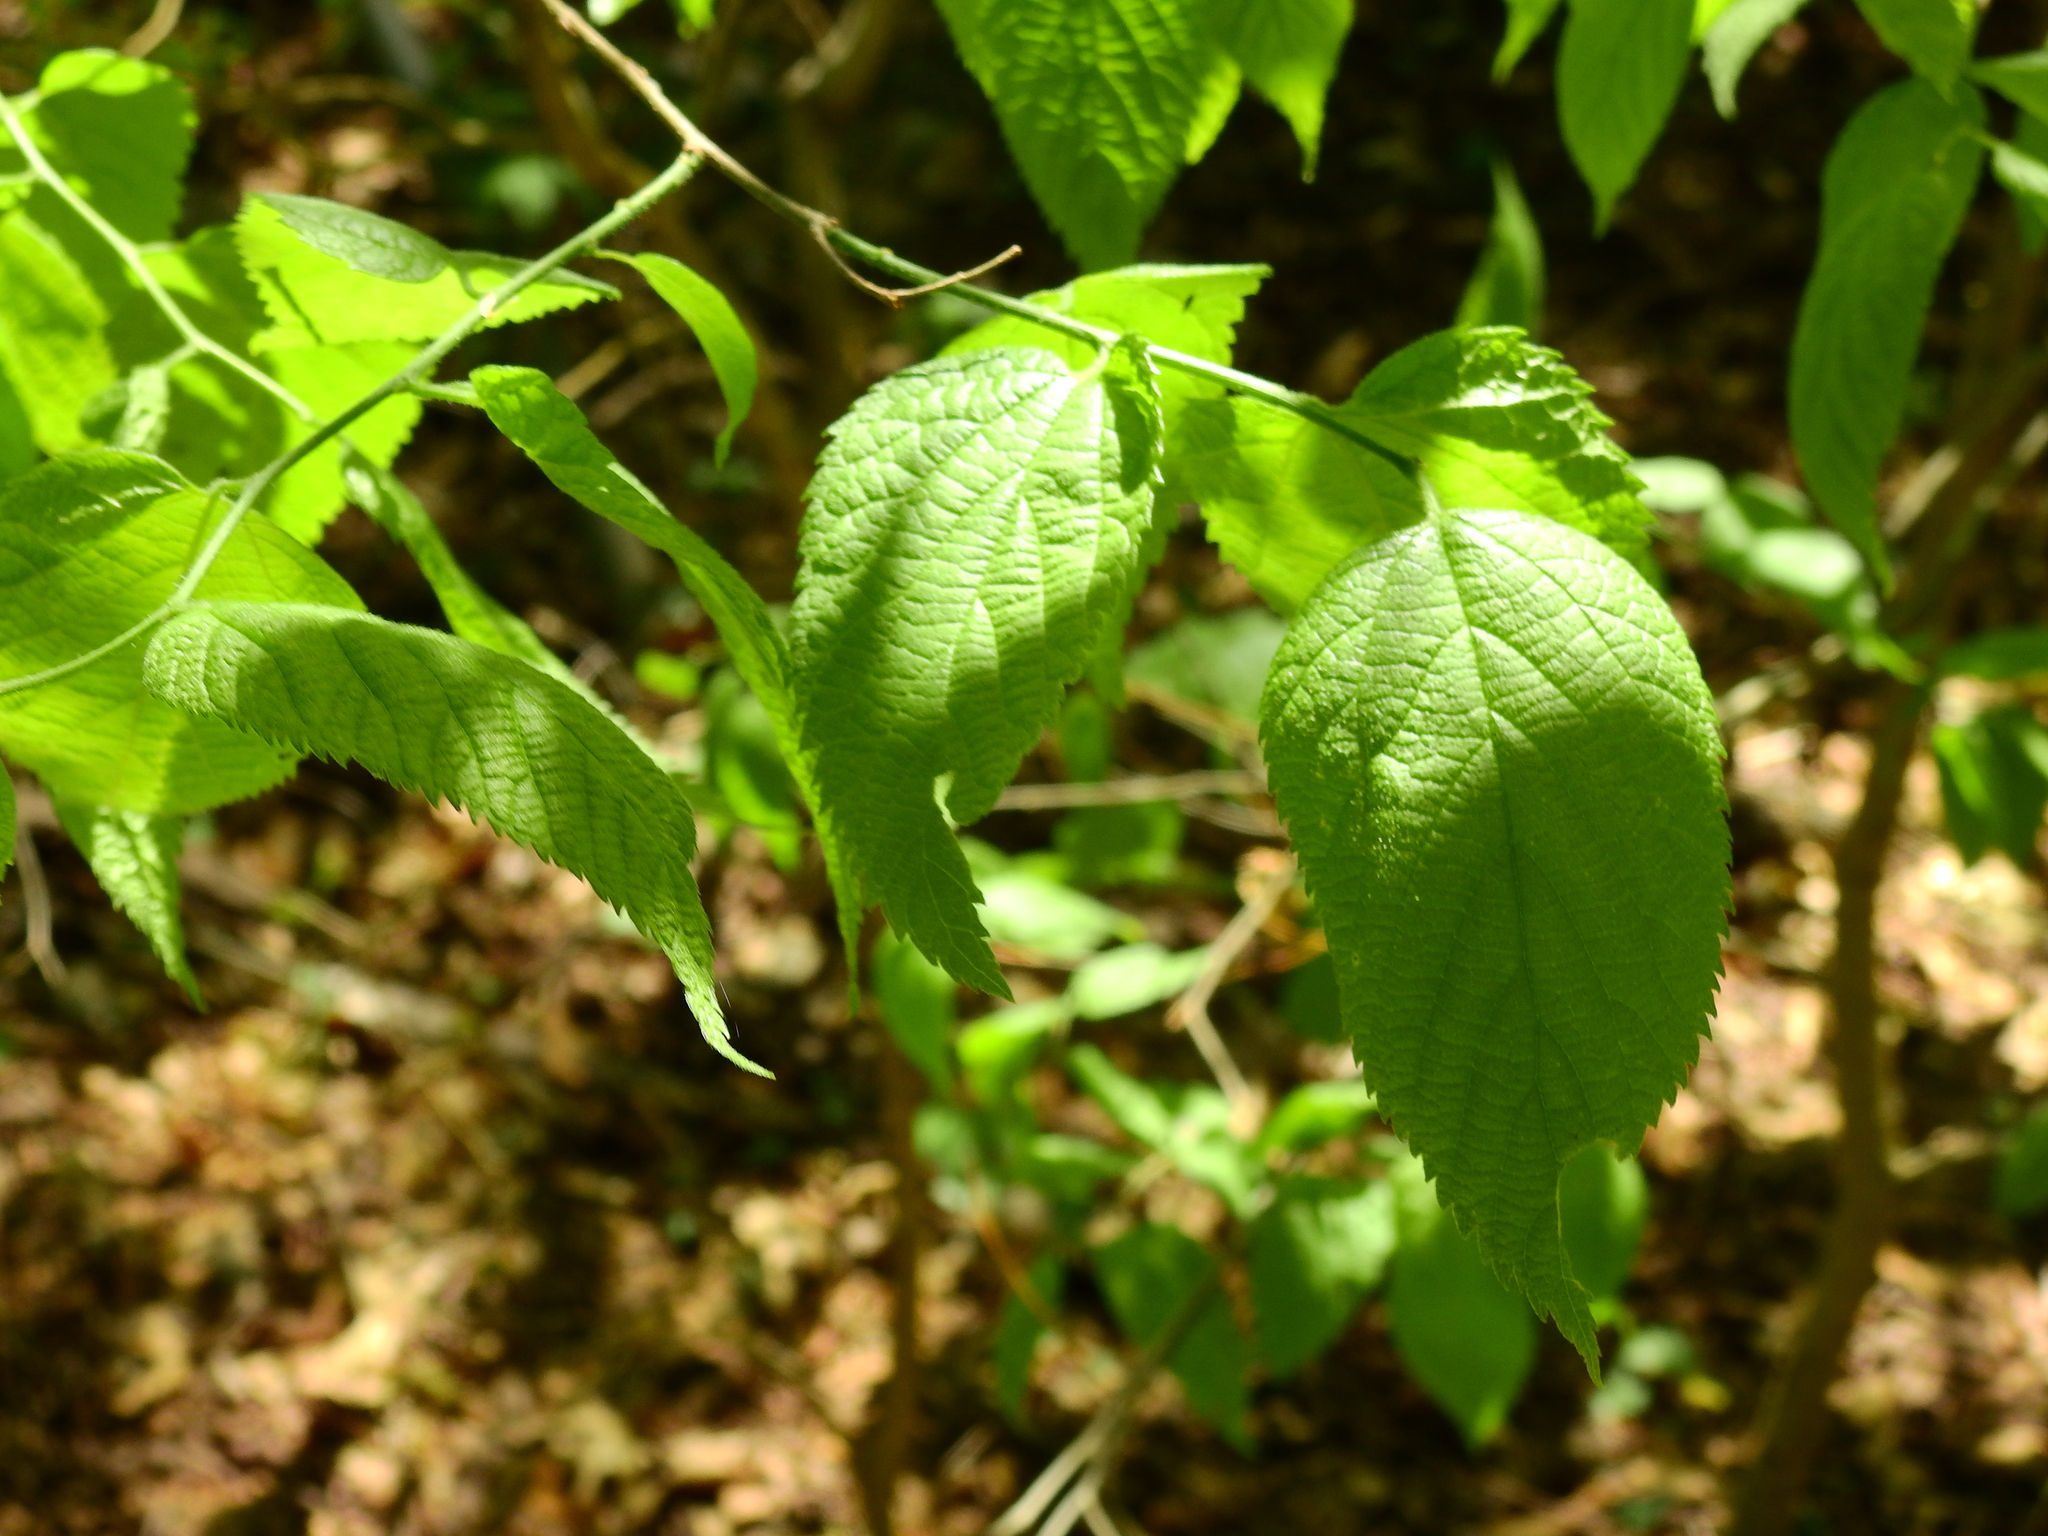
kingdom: Plantae
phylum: Tracheophyta
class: Magnoliopsida
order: Rosales
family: Cannabaceae
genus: Celtis
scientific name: Celtis occidentalis
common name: Common hackberry
